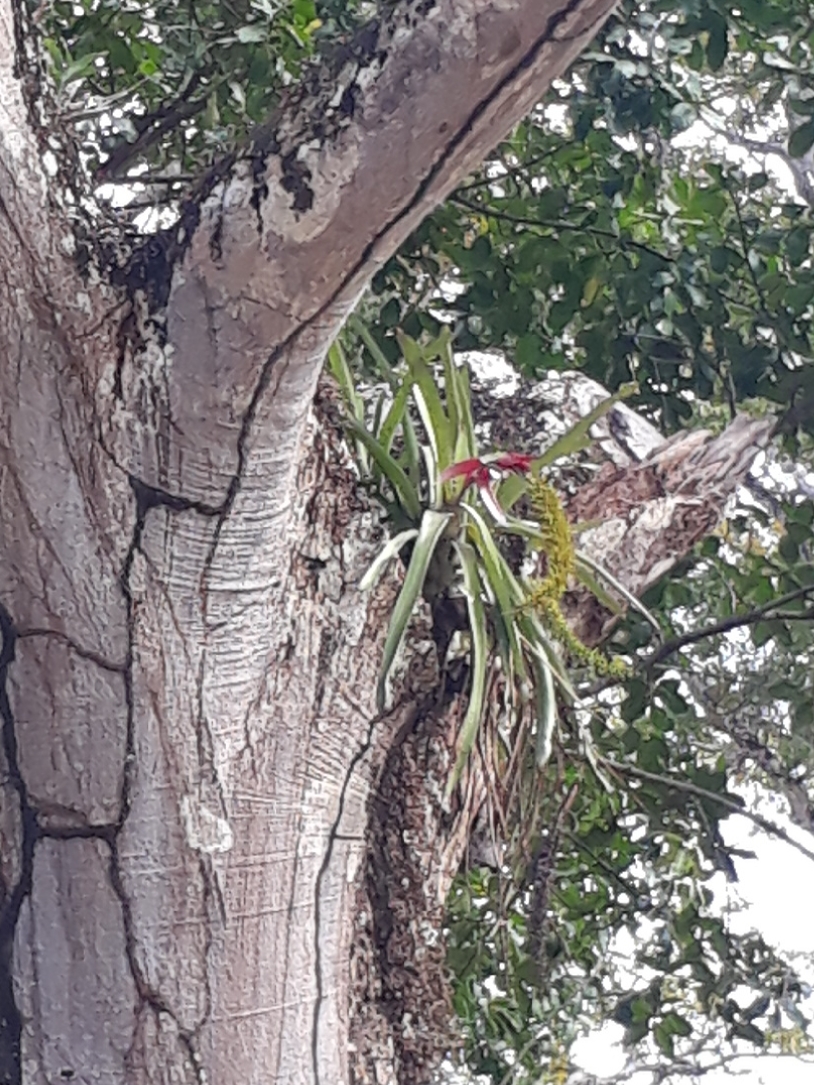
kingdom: Plantae
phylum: Tracheophyta
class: Liliopsida
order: Poales
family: Bromeliaceae
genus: Aechmea
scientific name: Aechmea setigera
